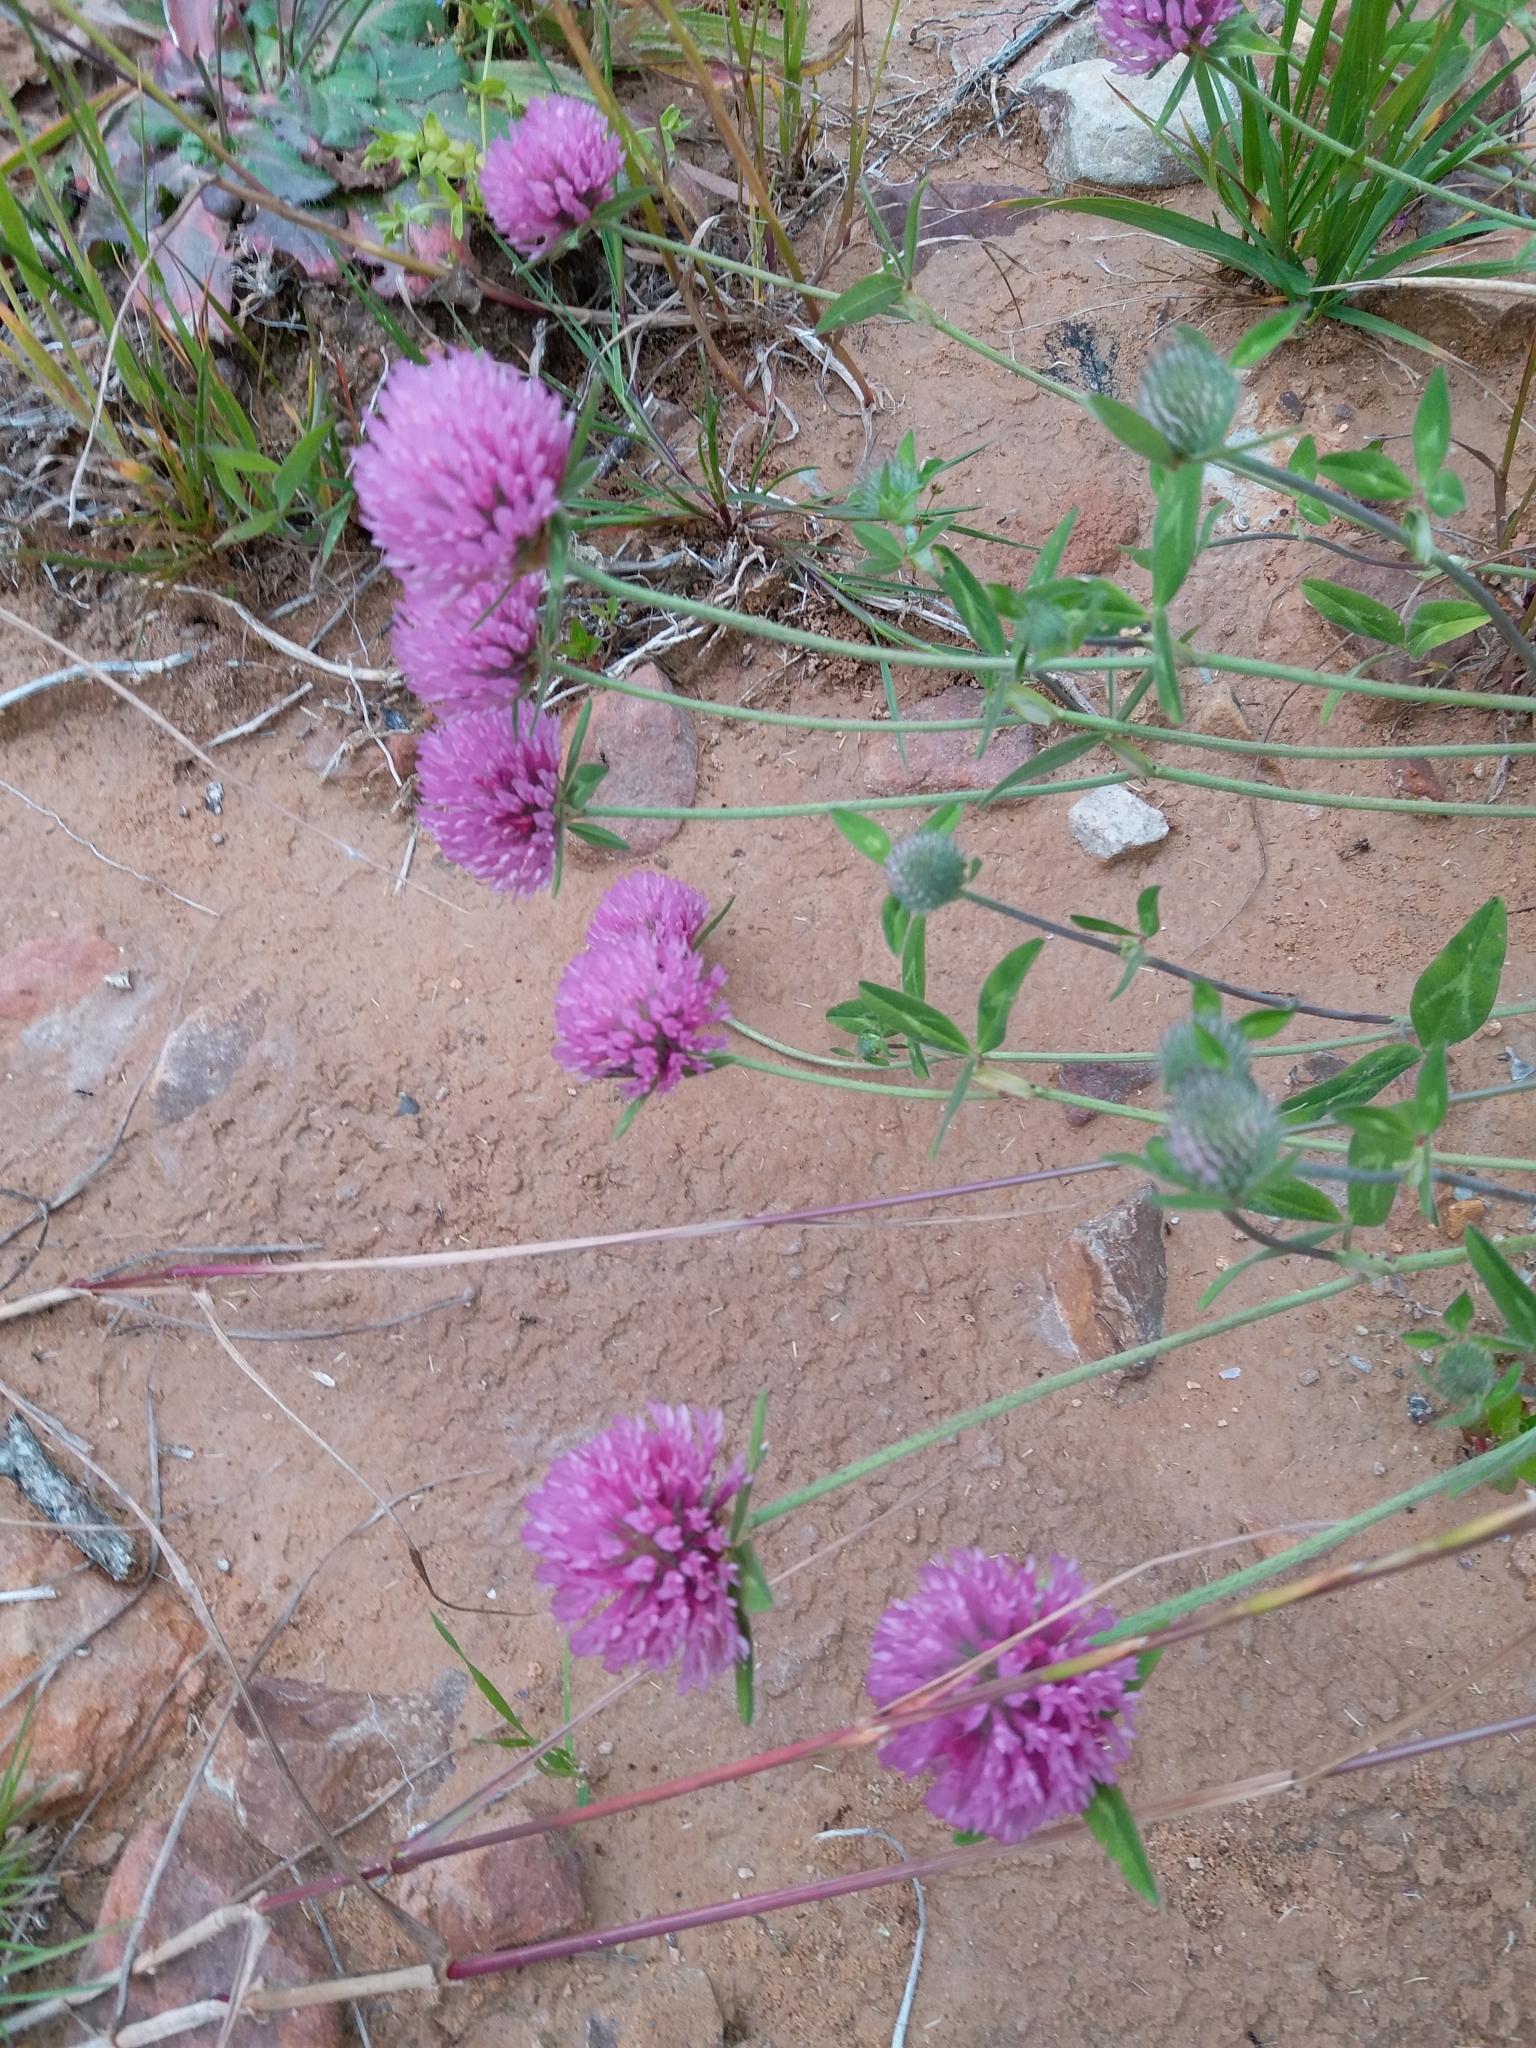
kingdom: Plantae
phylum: Tracheophyta
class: Magnoliopsida
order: Fabales
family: Fabaceae
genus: Trifolium
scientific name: Trifolium pratense
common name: Red clover
